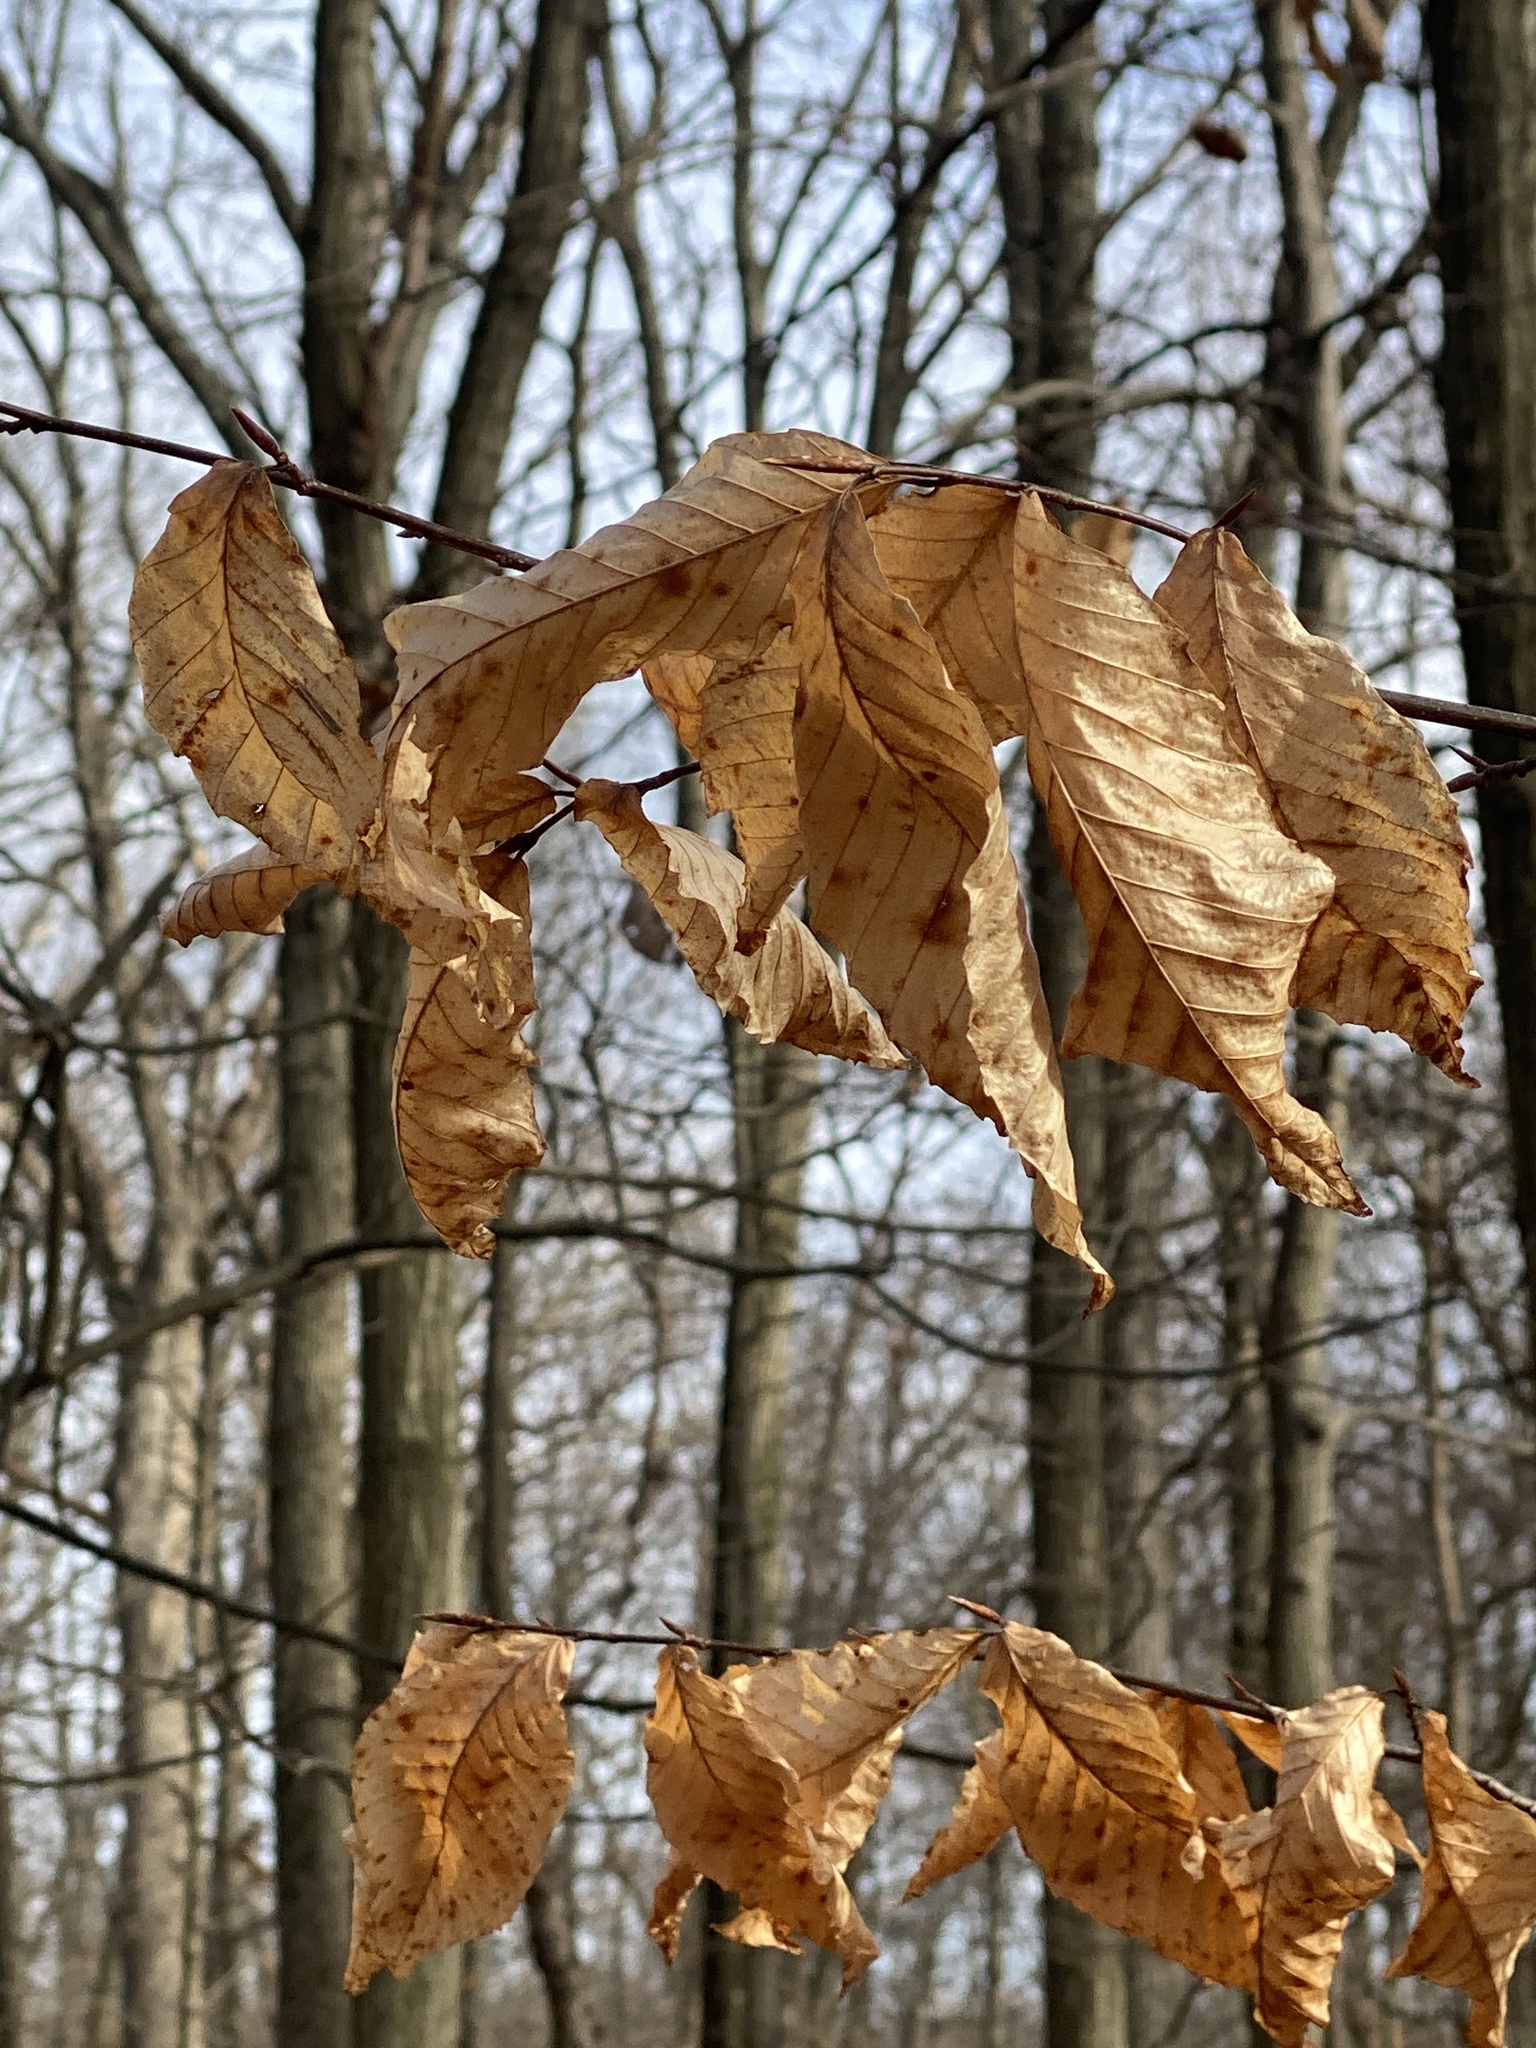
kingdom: Plantae
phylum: Tracheophyta
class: Magnoliopsida
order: Fagales
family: Fagaceae
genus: Fagus
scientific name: Fagus grandifolia
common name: American beech
